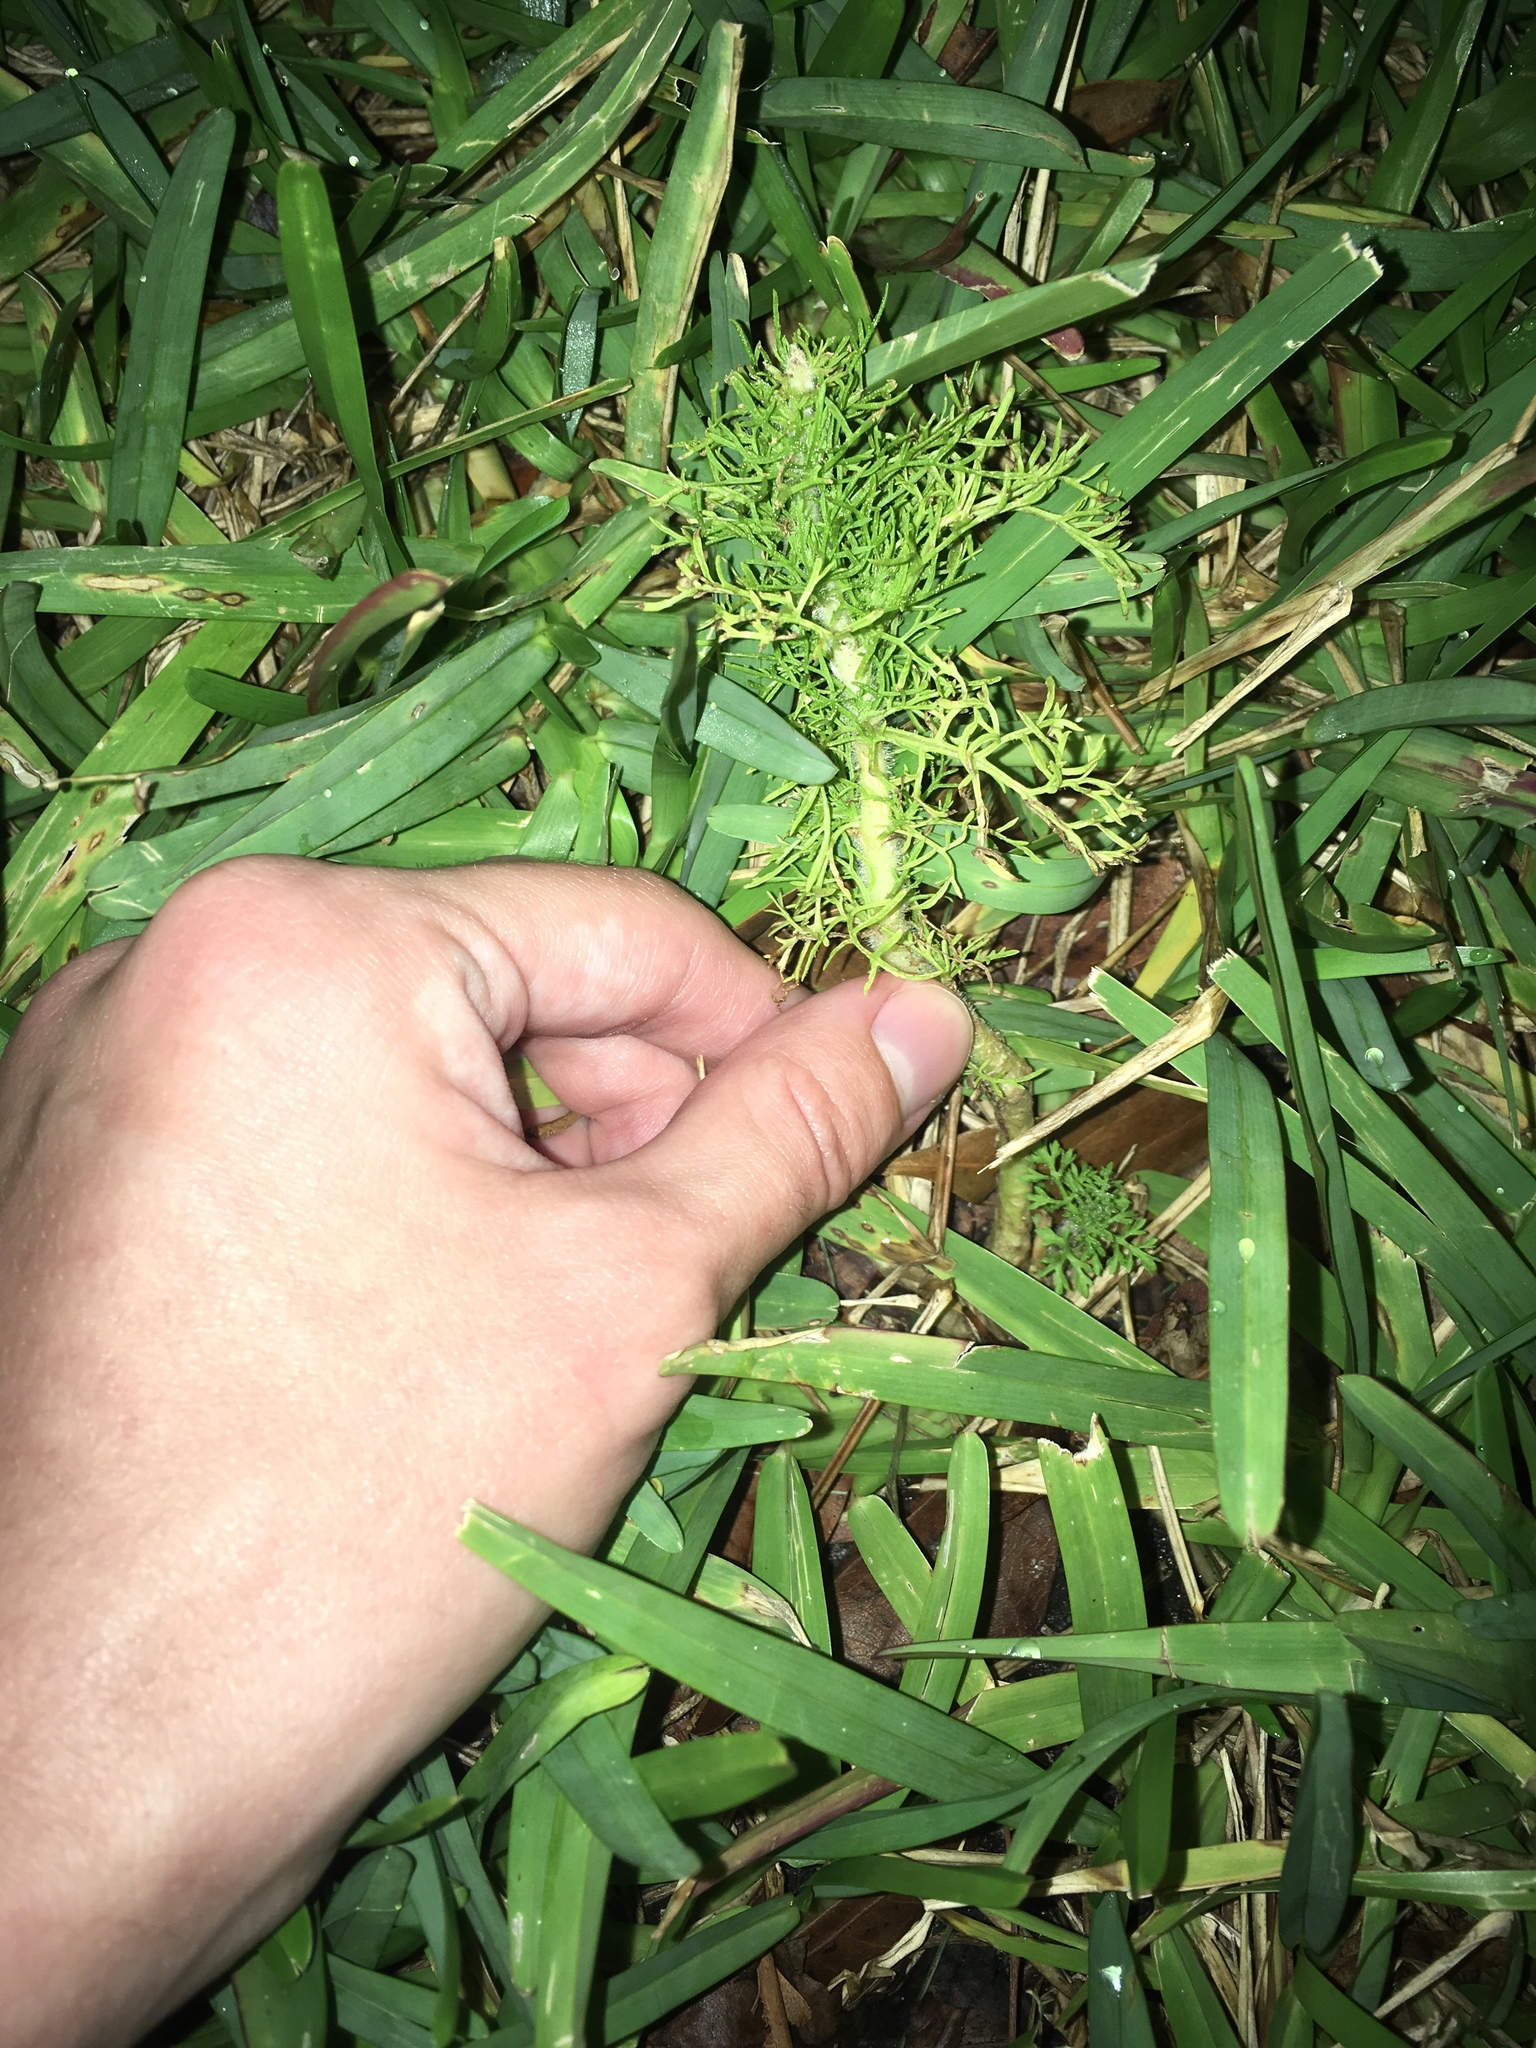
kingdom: Plantae
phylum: Tracheophyta
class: Magnoliopsida
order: Asterales
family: Asteraceae
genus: Eupatorium
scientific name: Eupatorium capillifolium
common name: Dog-fennel
